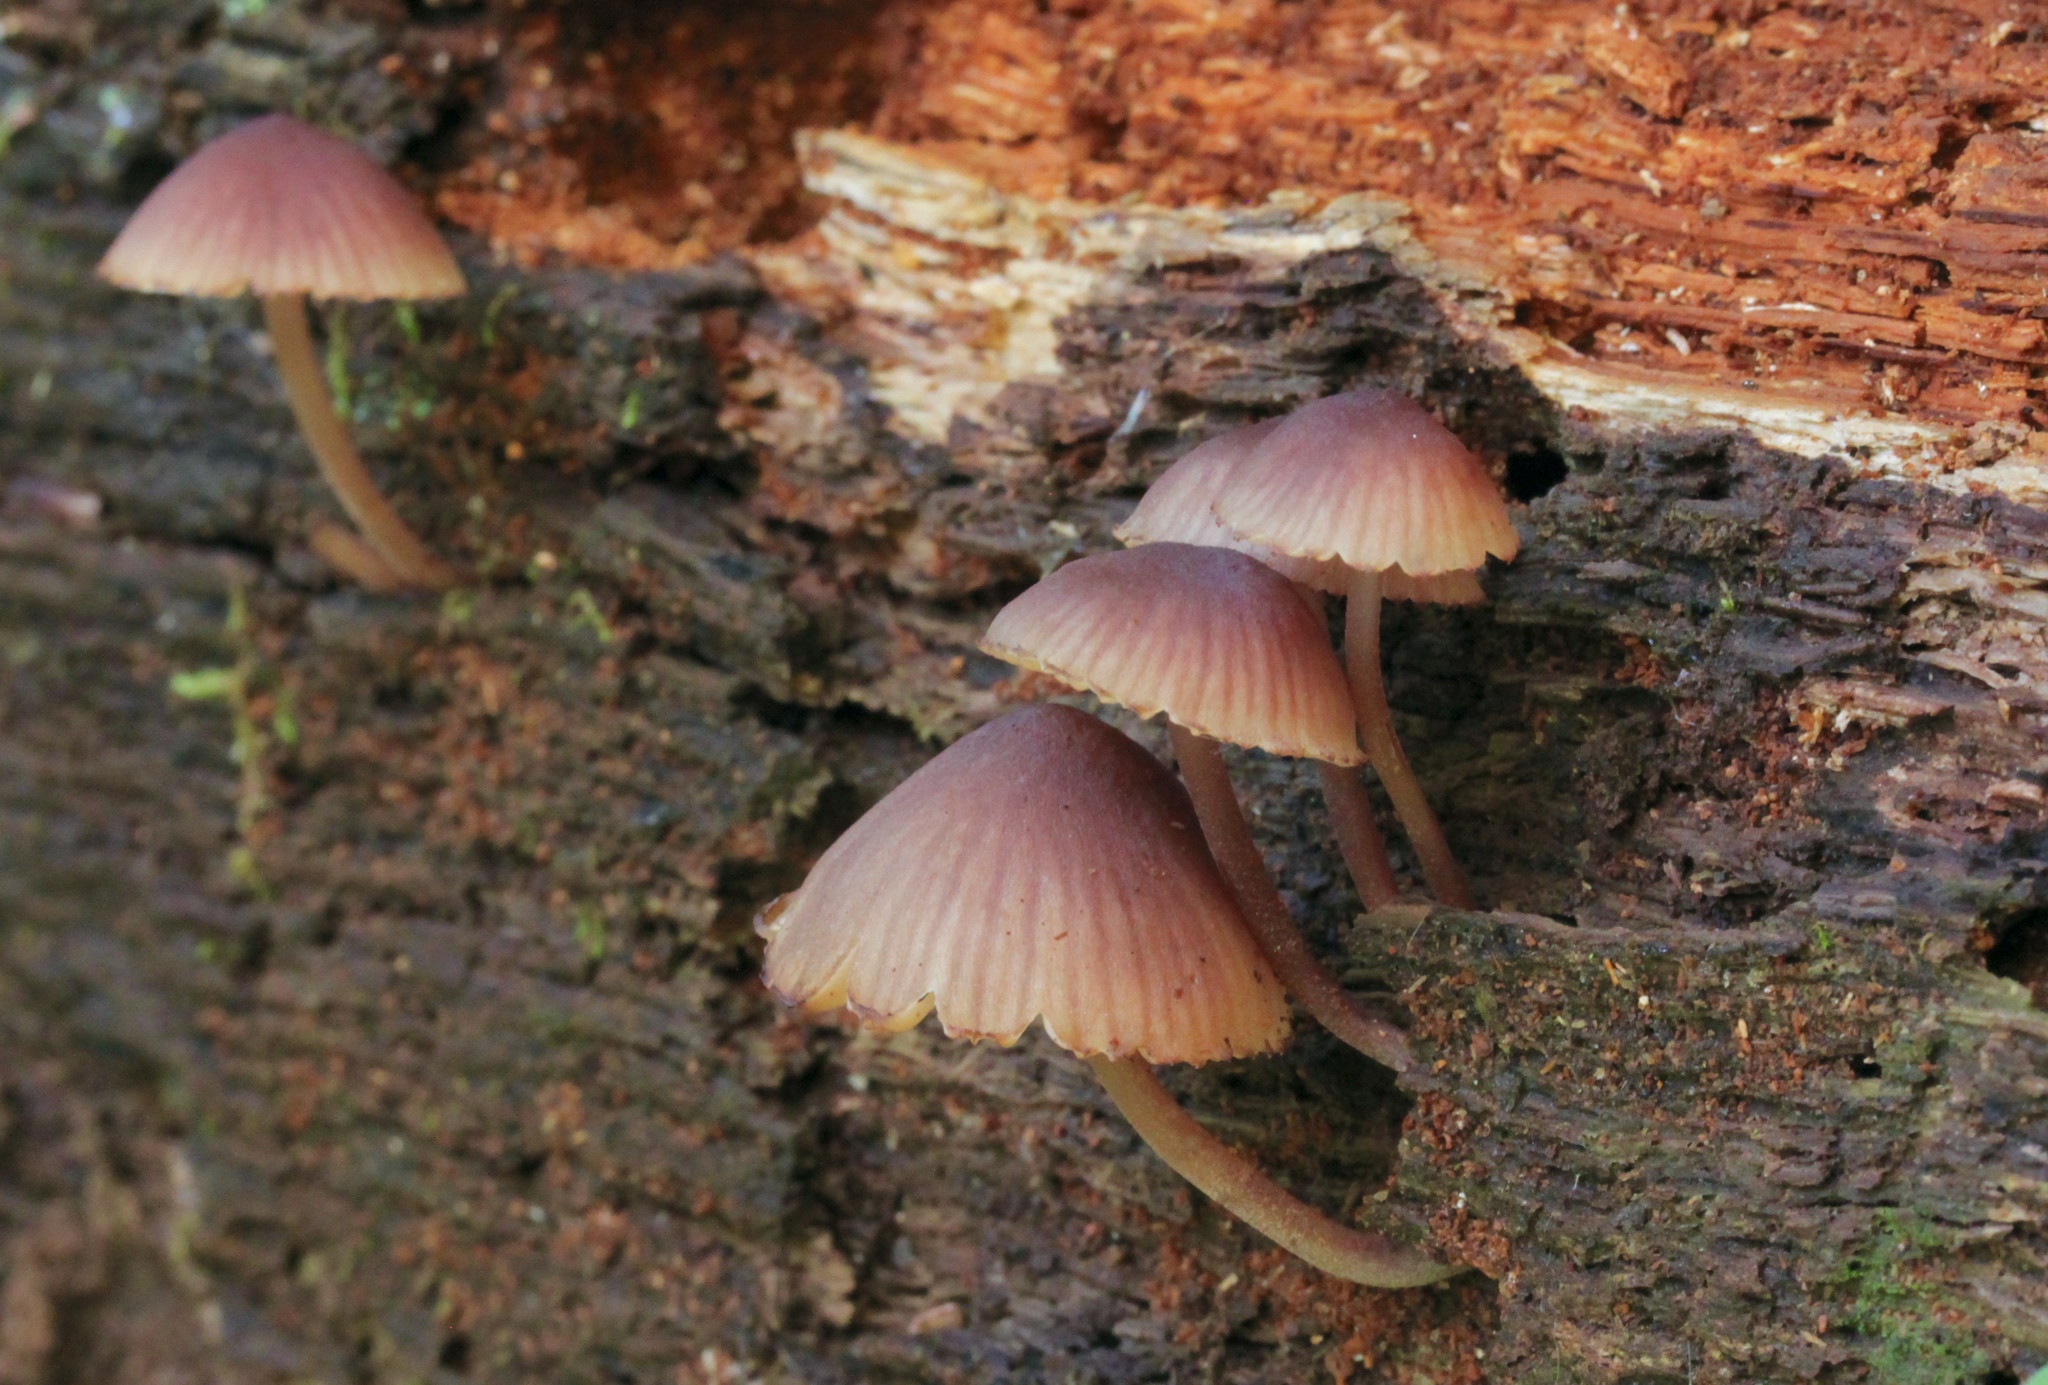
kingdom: Fungi
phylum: Basidiomycota
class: Agaricomycetes
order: Agaricales
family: Mycenaceae
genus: Mycena
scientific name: Mycena haematopus
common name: Burgundydrop bonnet
